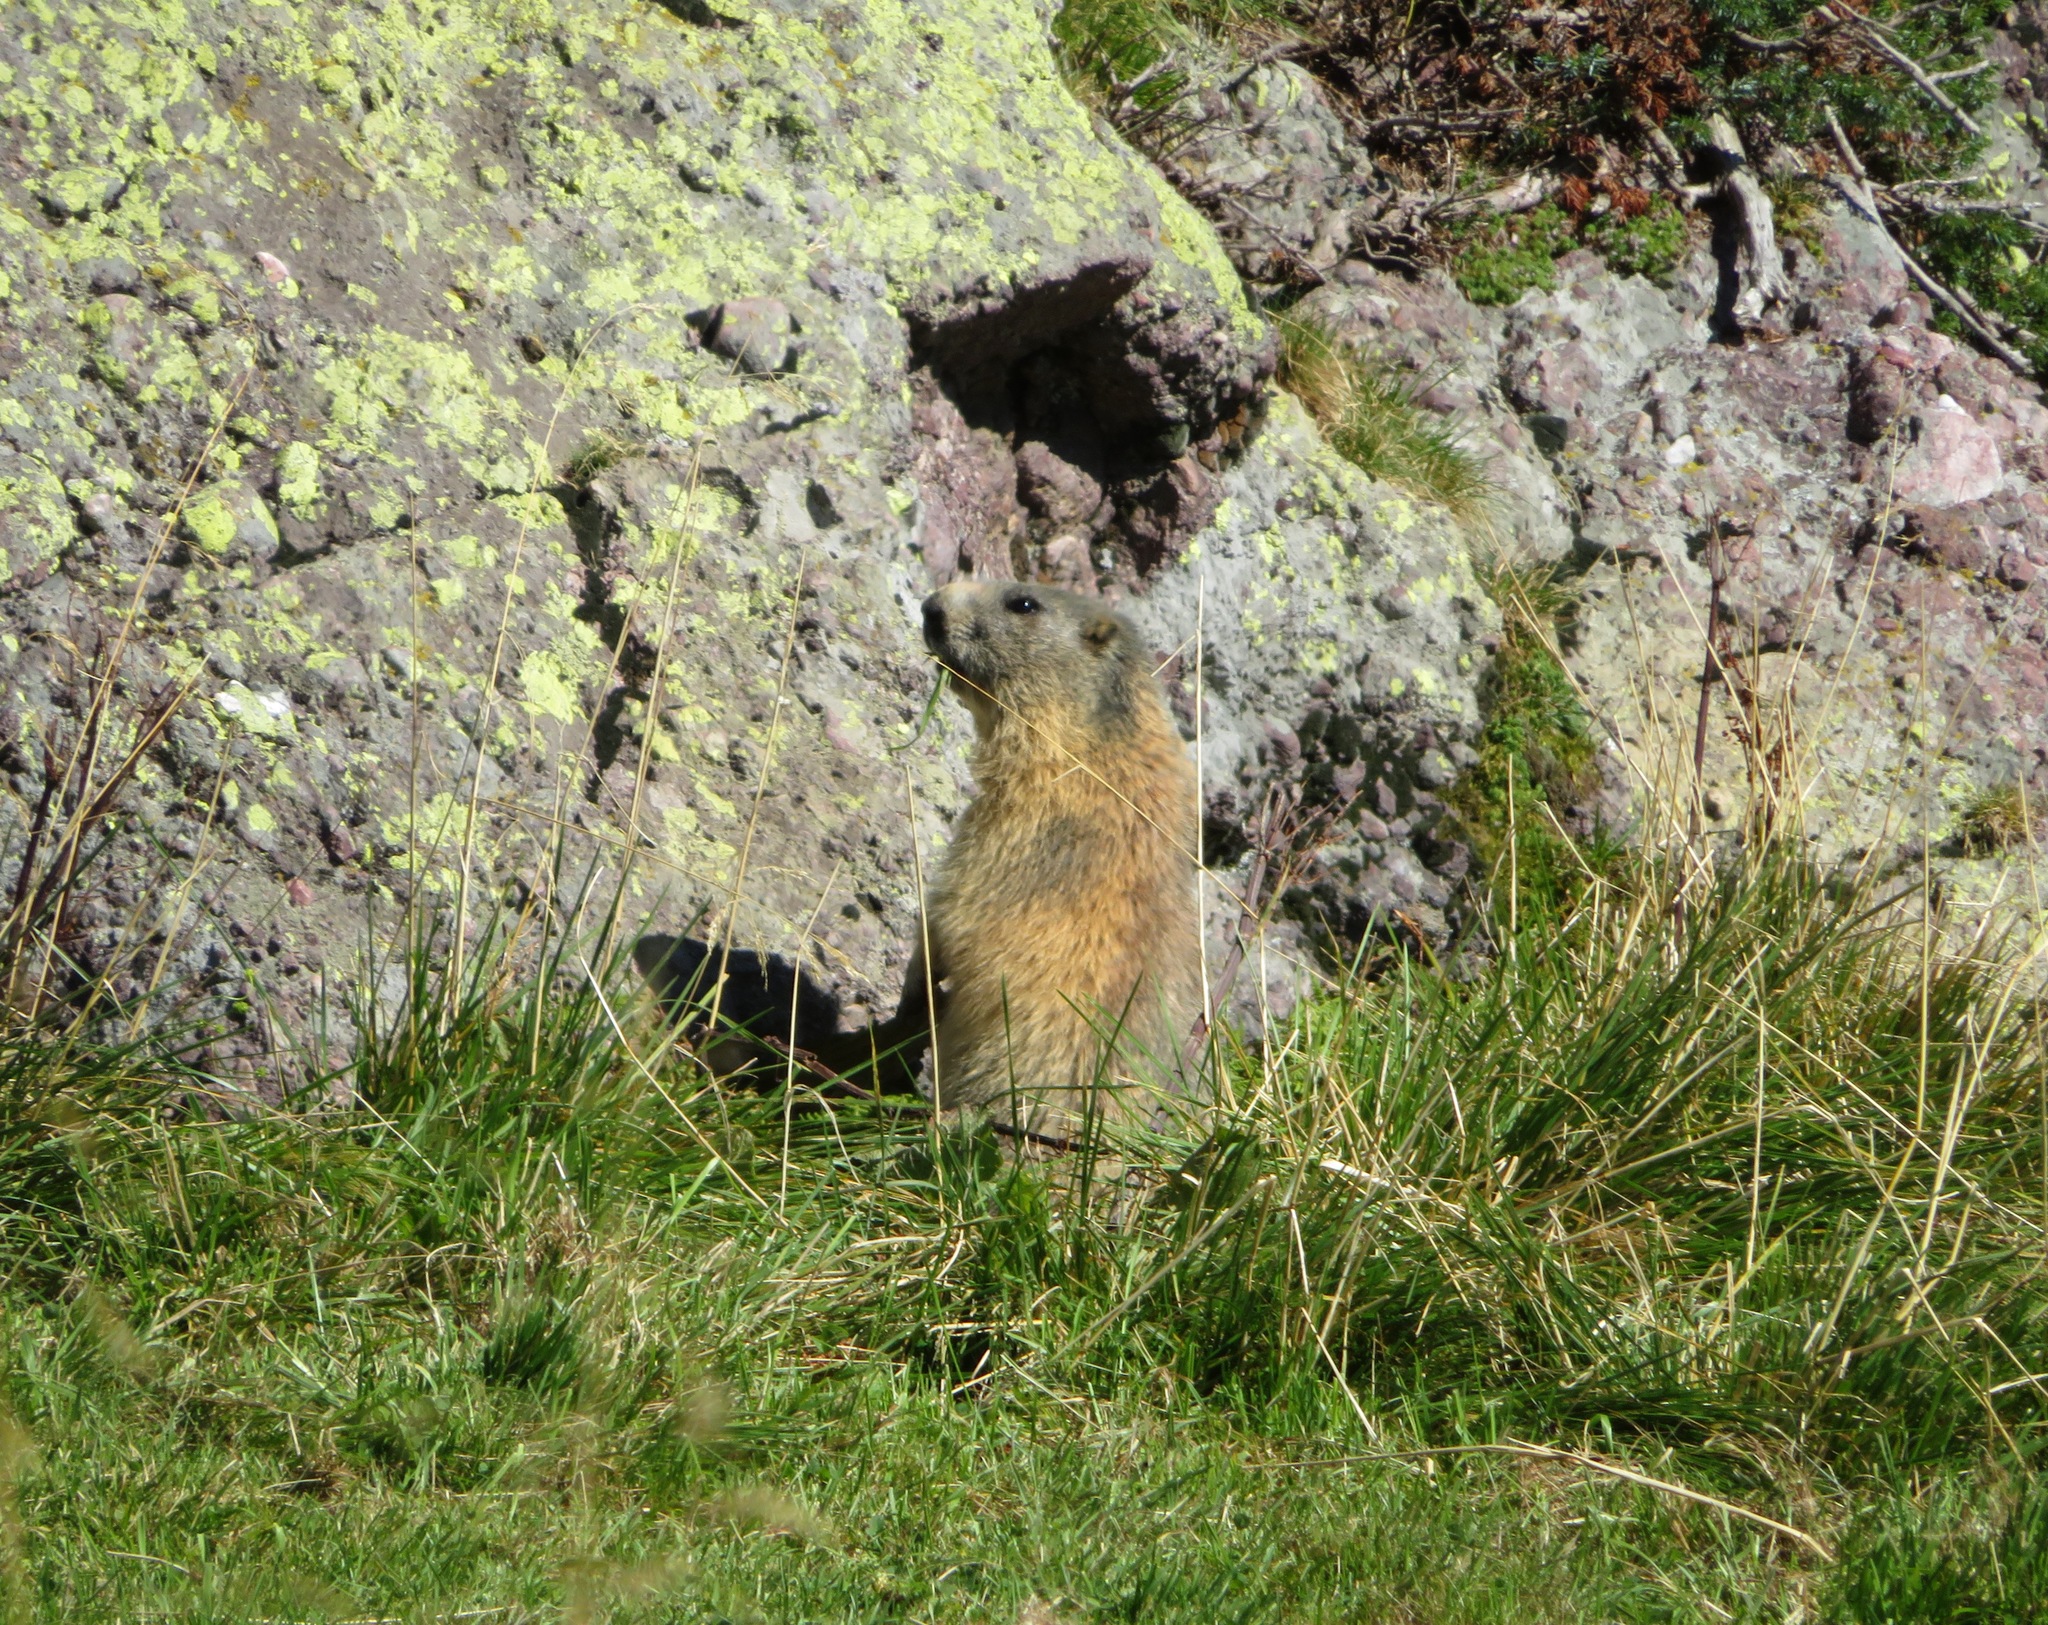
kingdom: Animalia
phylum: Chordata
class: Mammalia
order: Rodentia
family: Sciuridae
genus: Marmota
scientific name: Marmota marmota
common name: Alpine marmot
